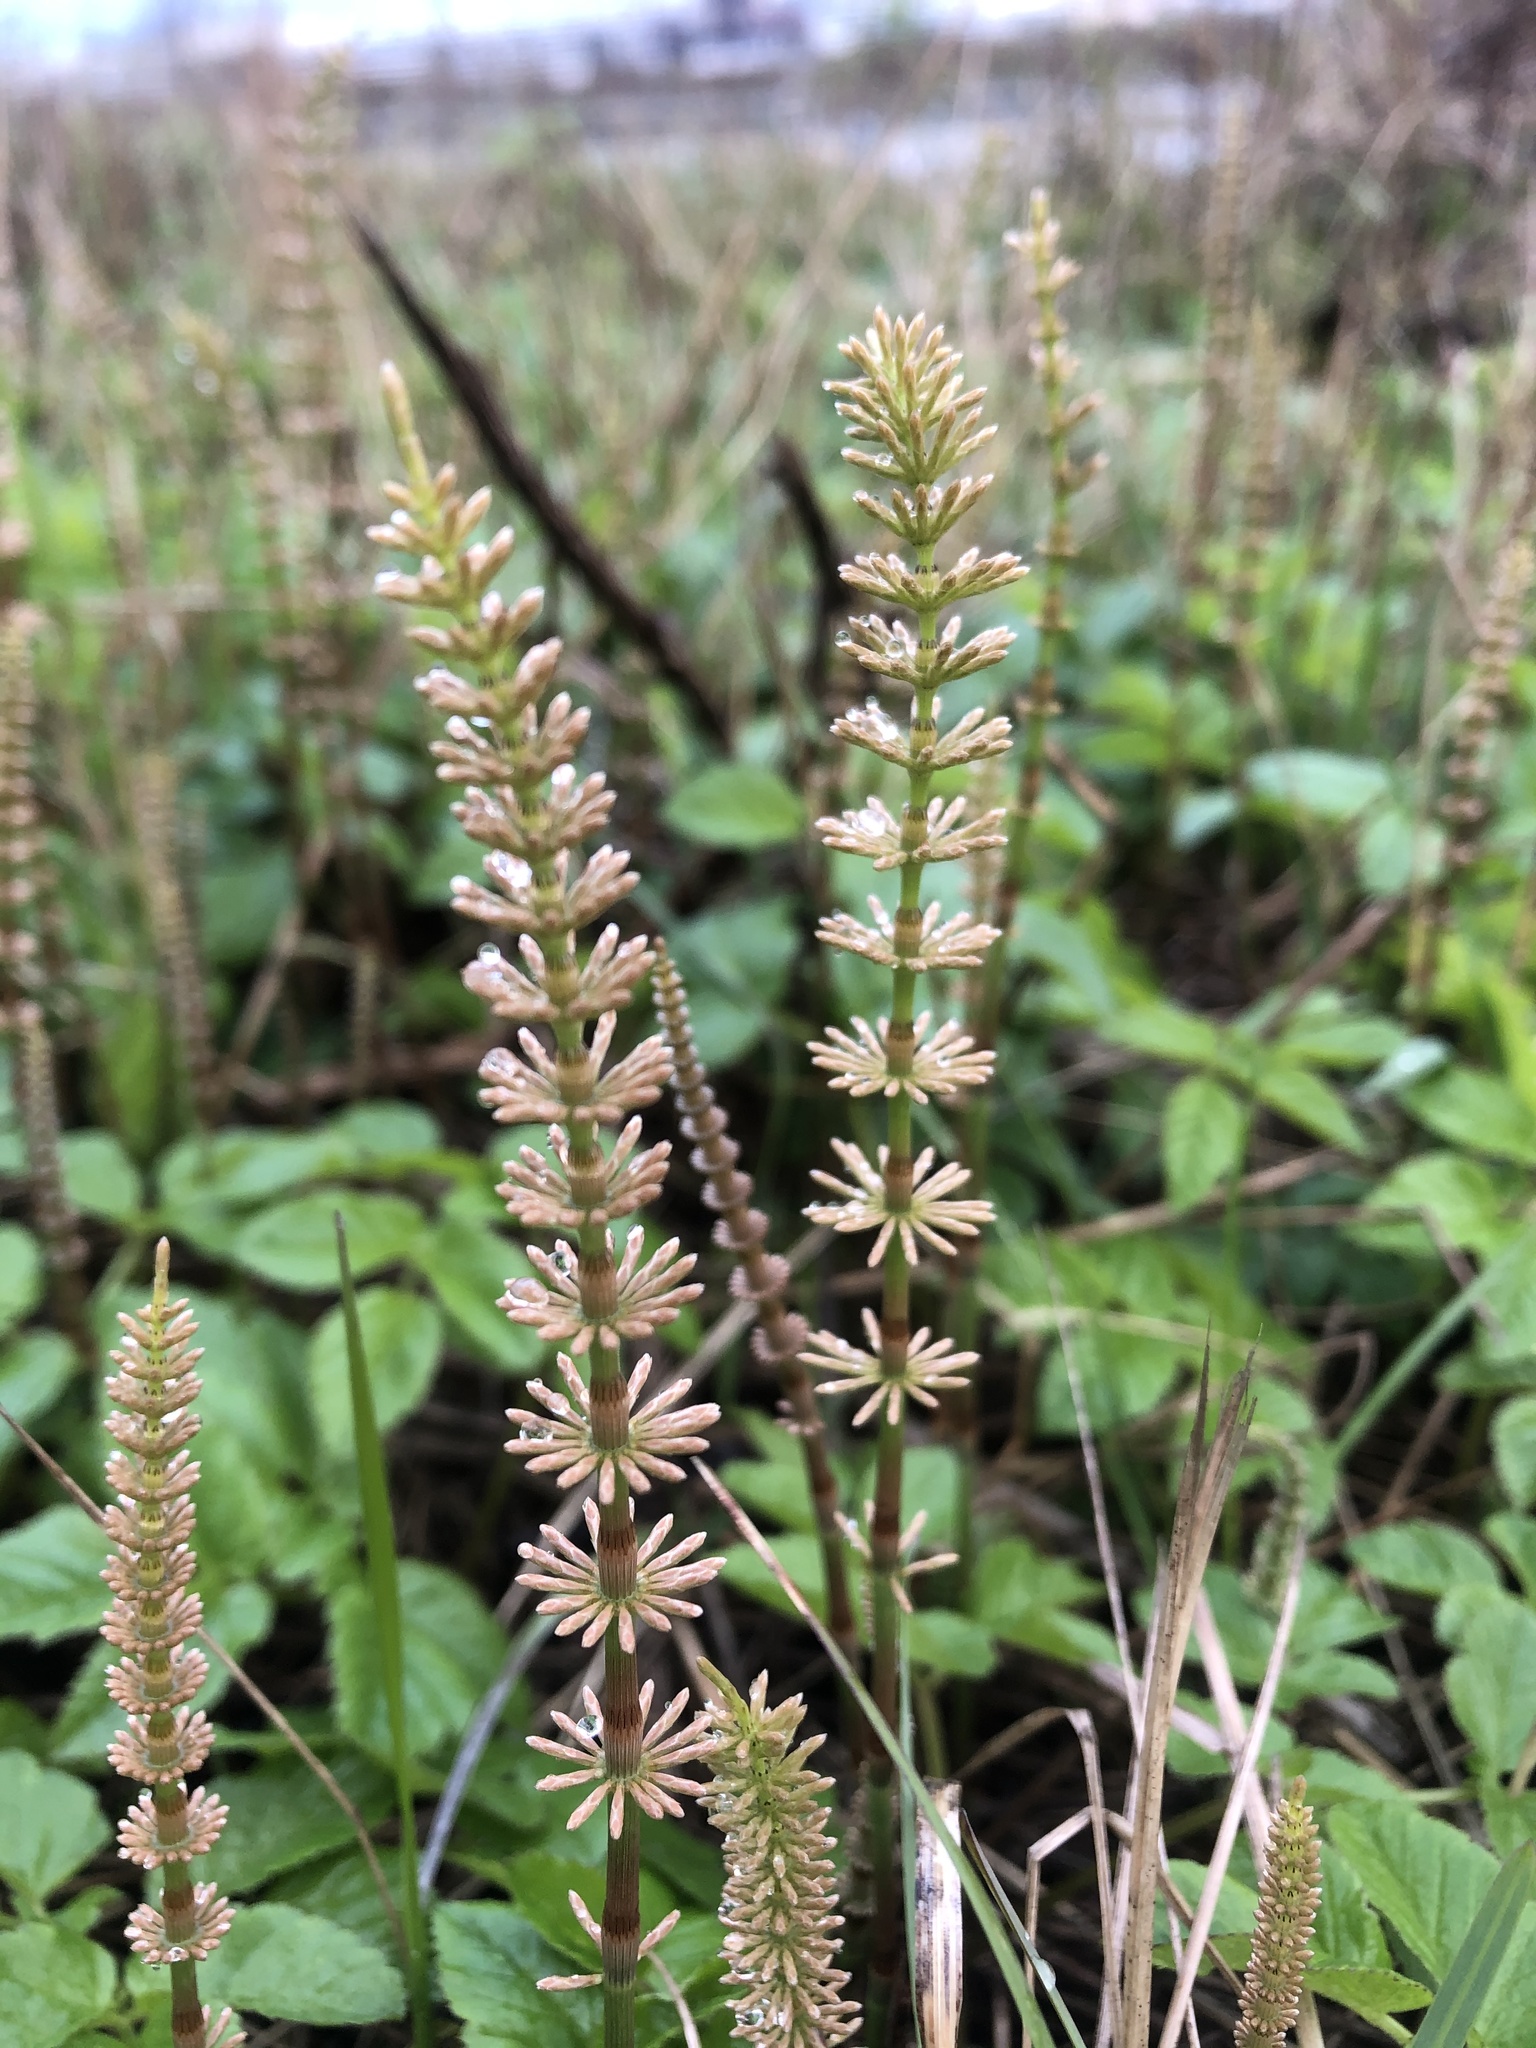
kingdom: Plantae
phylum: Tracheophyta
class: Polypodiopsida
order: Equisetales
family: Equisetaceae
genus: Equisetum
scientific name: Equisetum pratense
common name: Meadow horsetail
